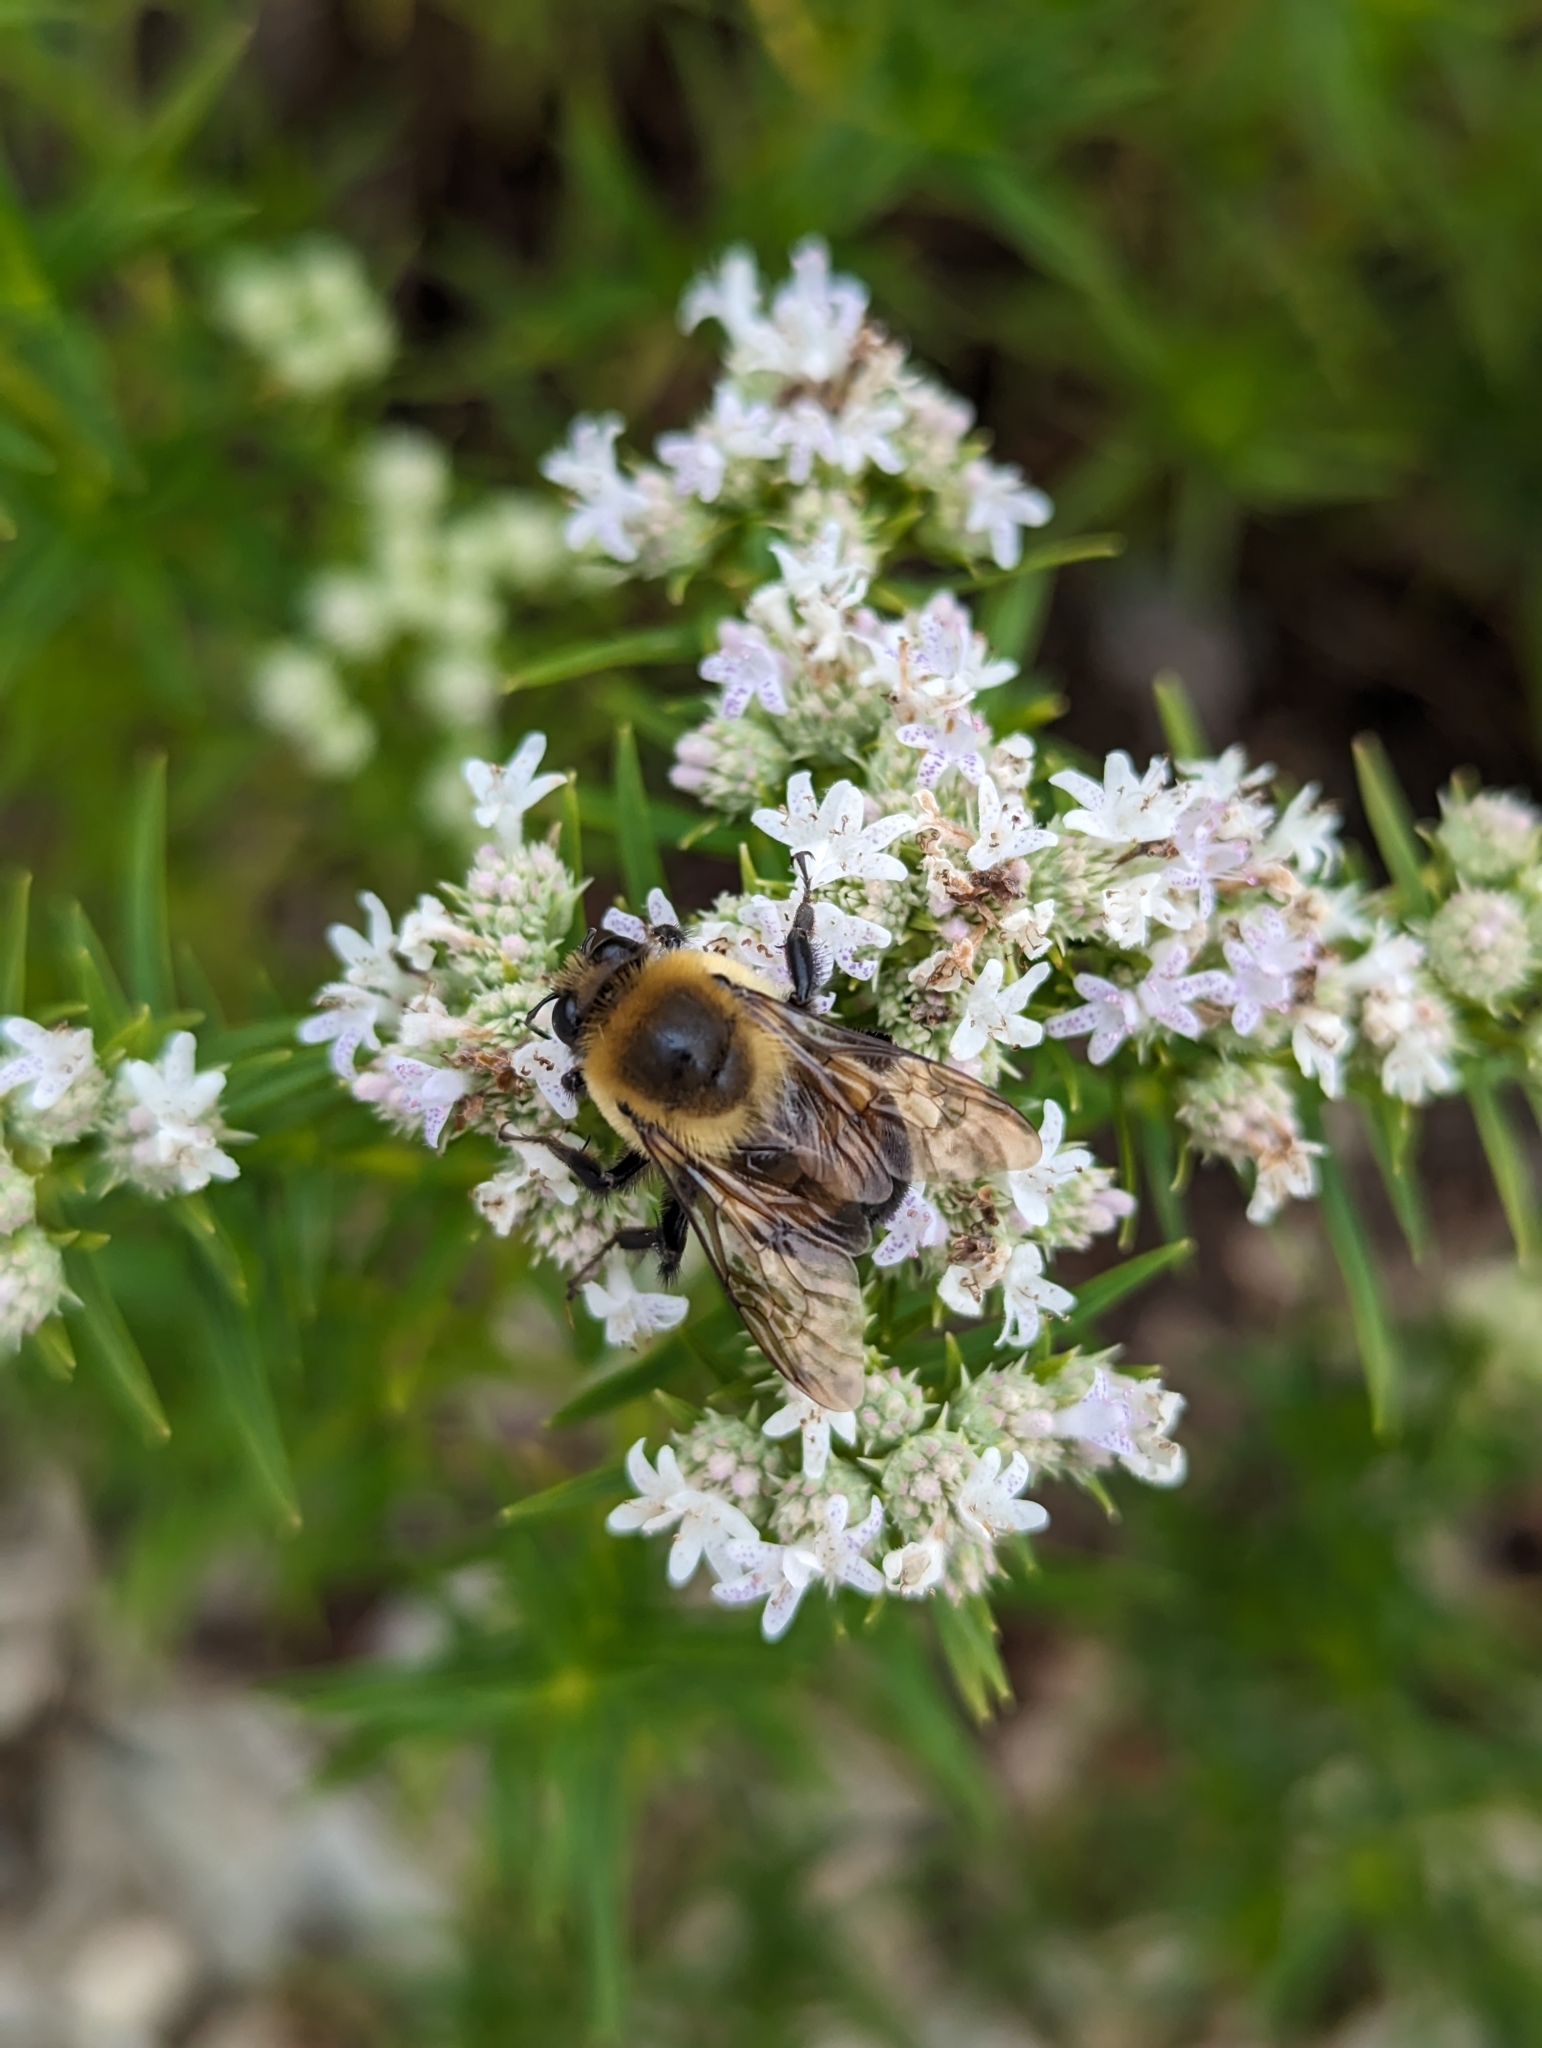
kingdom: Animalia
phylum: Arthropoda
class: Insecta
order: Hymenoptera
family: Apidae
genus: Bombus
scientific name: Bombus griseocollis
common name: Brown-belted bumble bee
